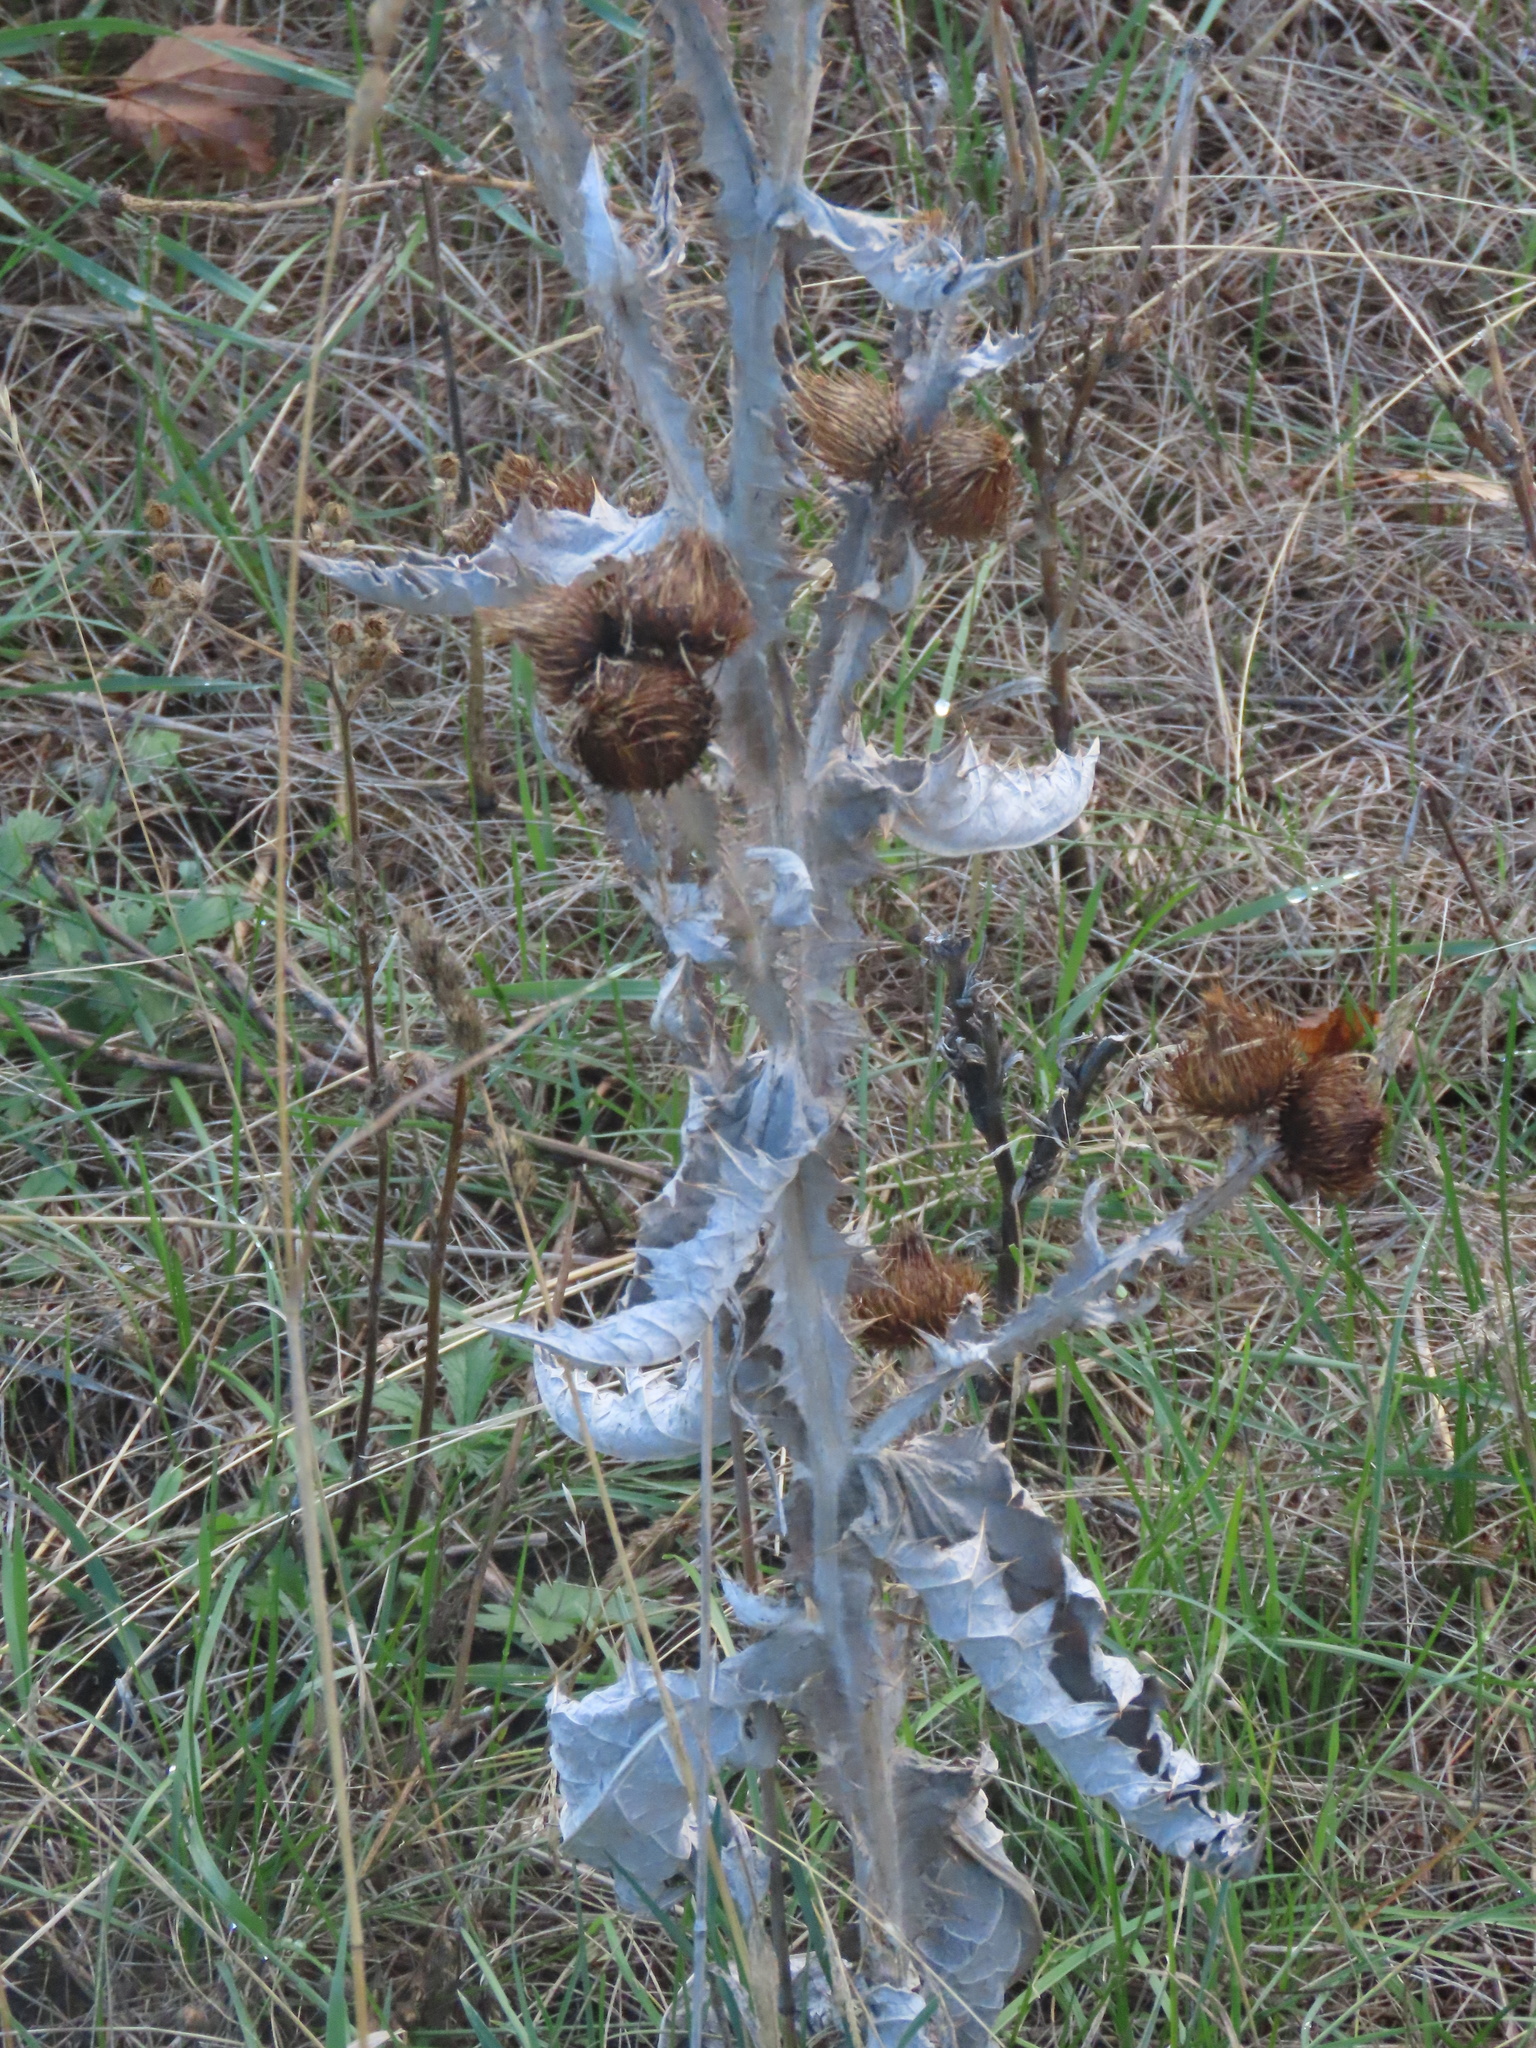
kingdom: Plantae
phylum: Tracheophyta
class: Magnoliopsida
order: Asterales
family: Asteraceae
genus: Onopordum
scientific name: Onopordum acanthium
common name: Scotch thistle
